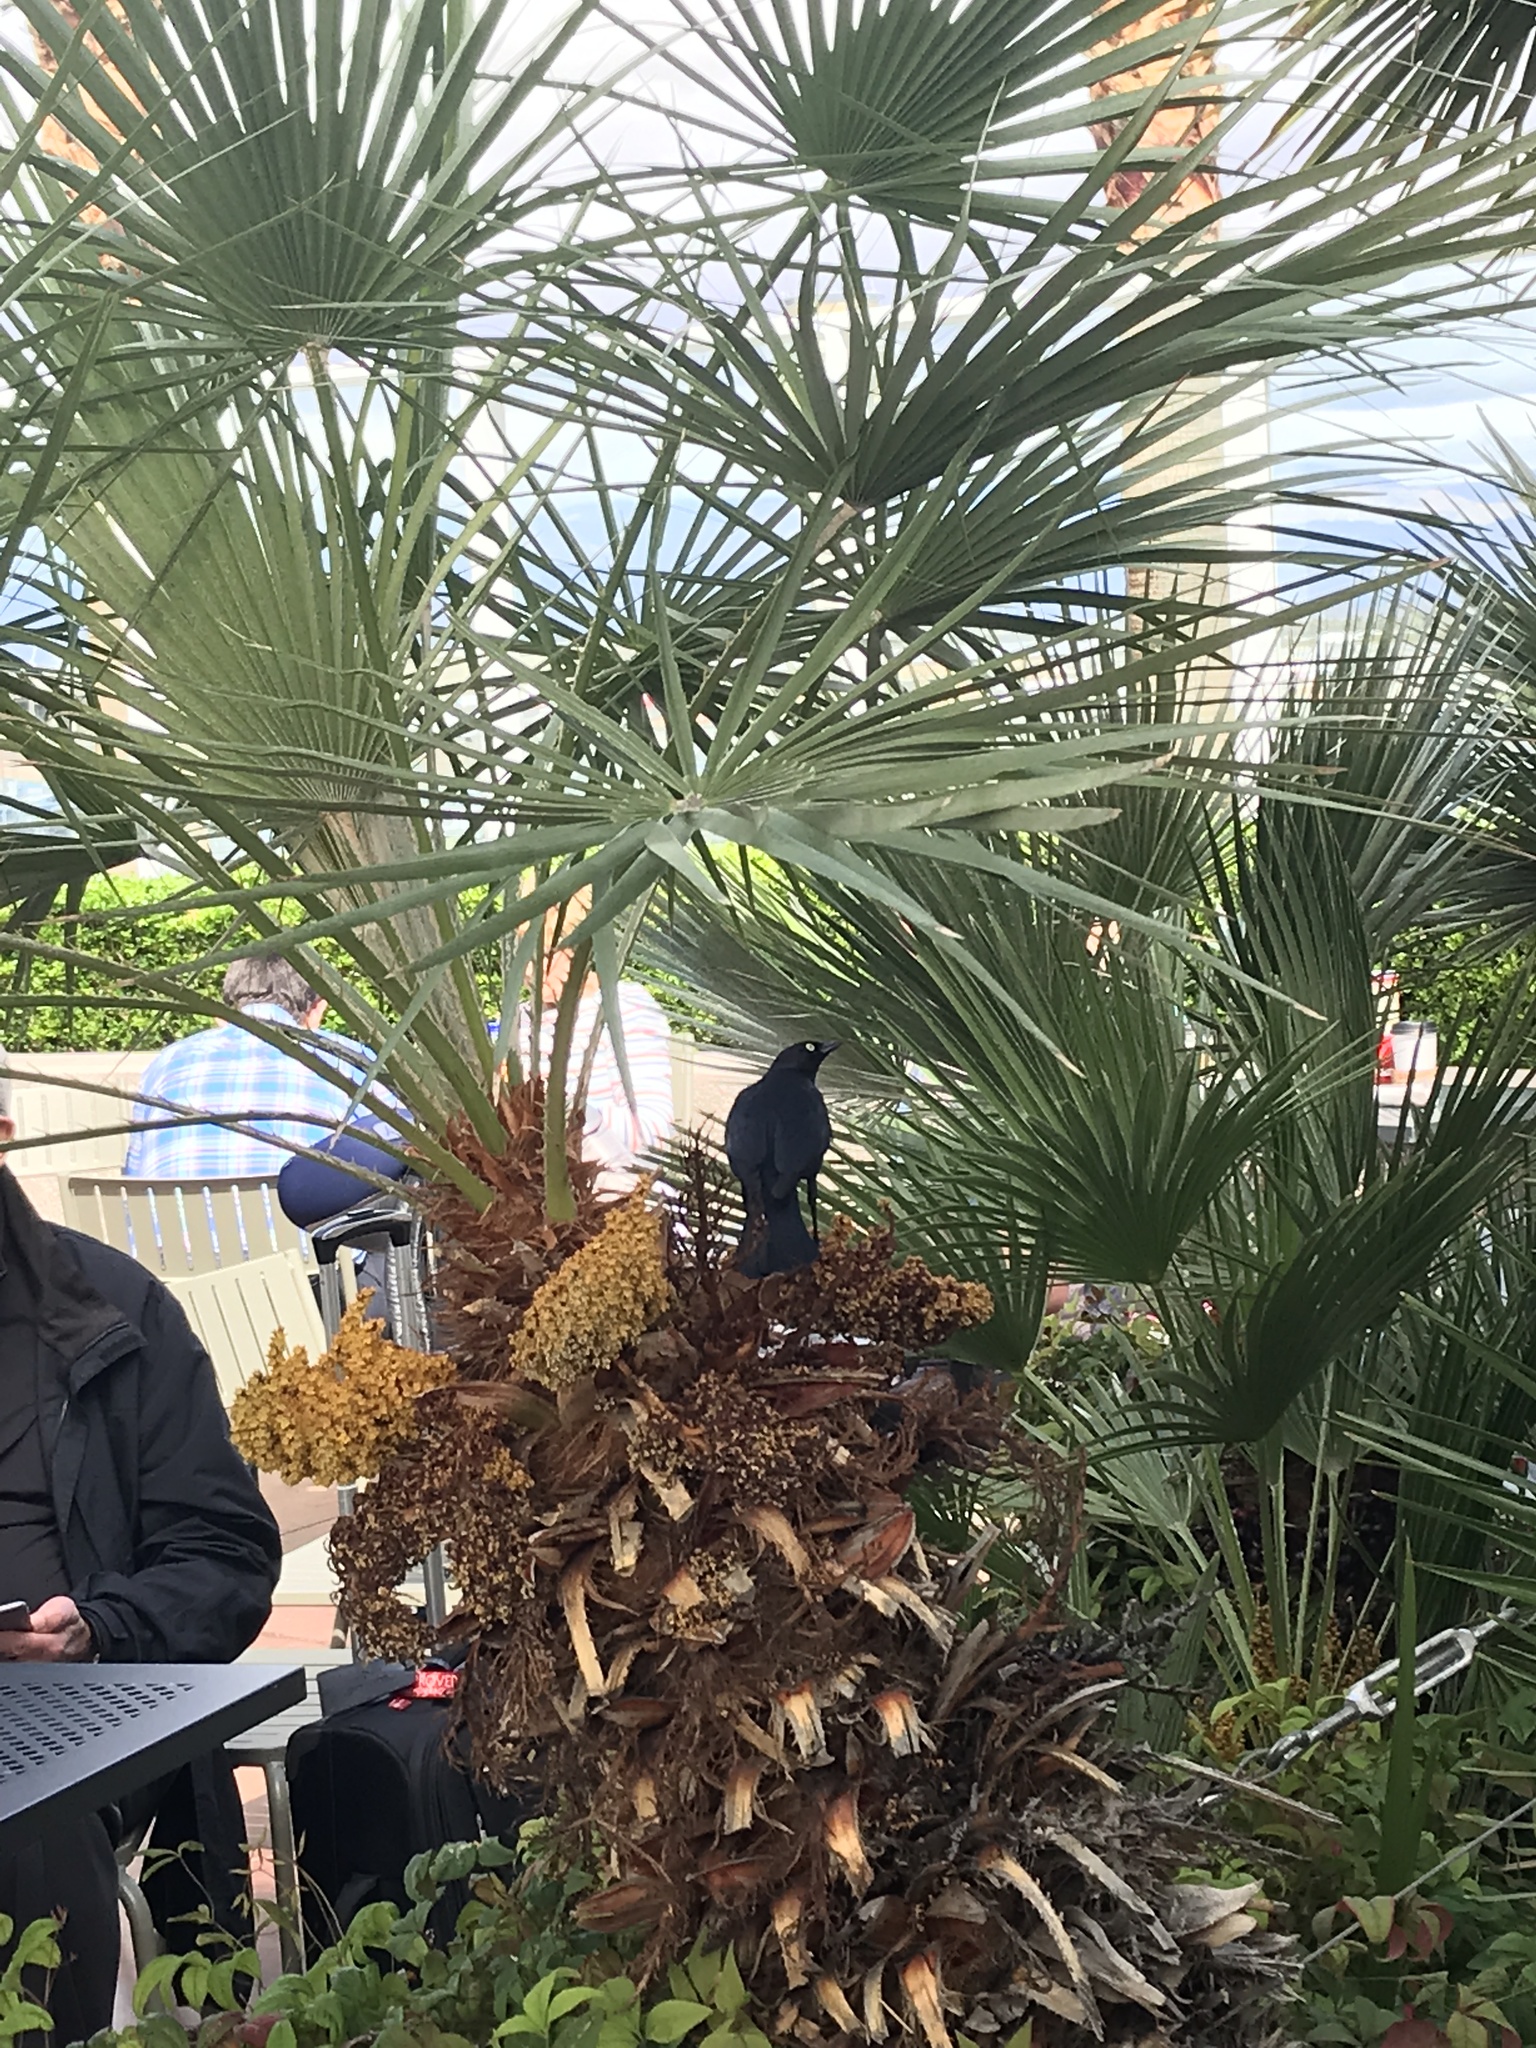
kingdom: Animalia
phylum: Chordata
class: Aves
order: Passeriformes
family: Icteridae
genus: Euphagus
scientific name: Euphagus cyanocephalus
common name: Brewer's blackbird
